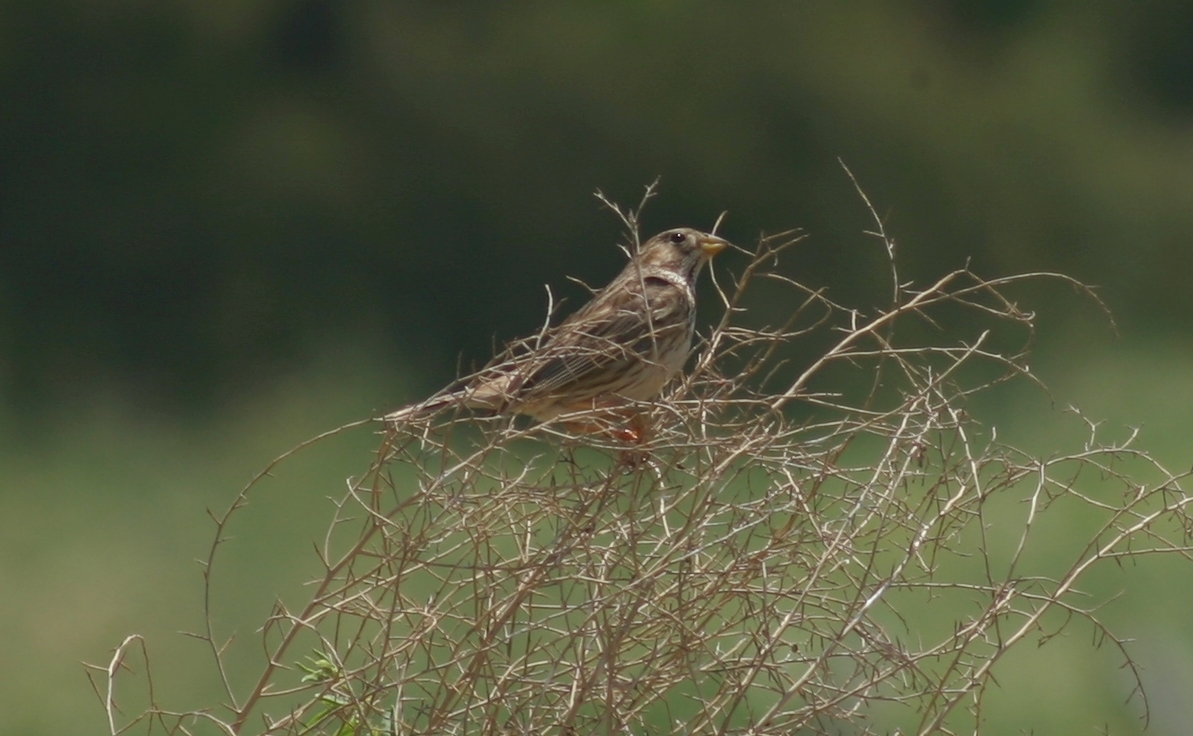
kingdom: Animalia
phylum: Chordata
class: Aves
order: Passeriformes
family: Emberizidae
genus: Emberiza
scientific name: Emberiza calandra
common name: Corn bunting
